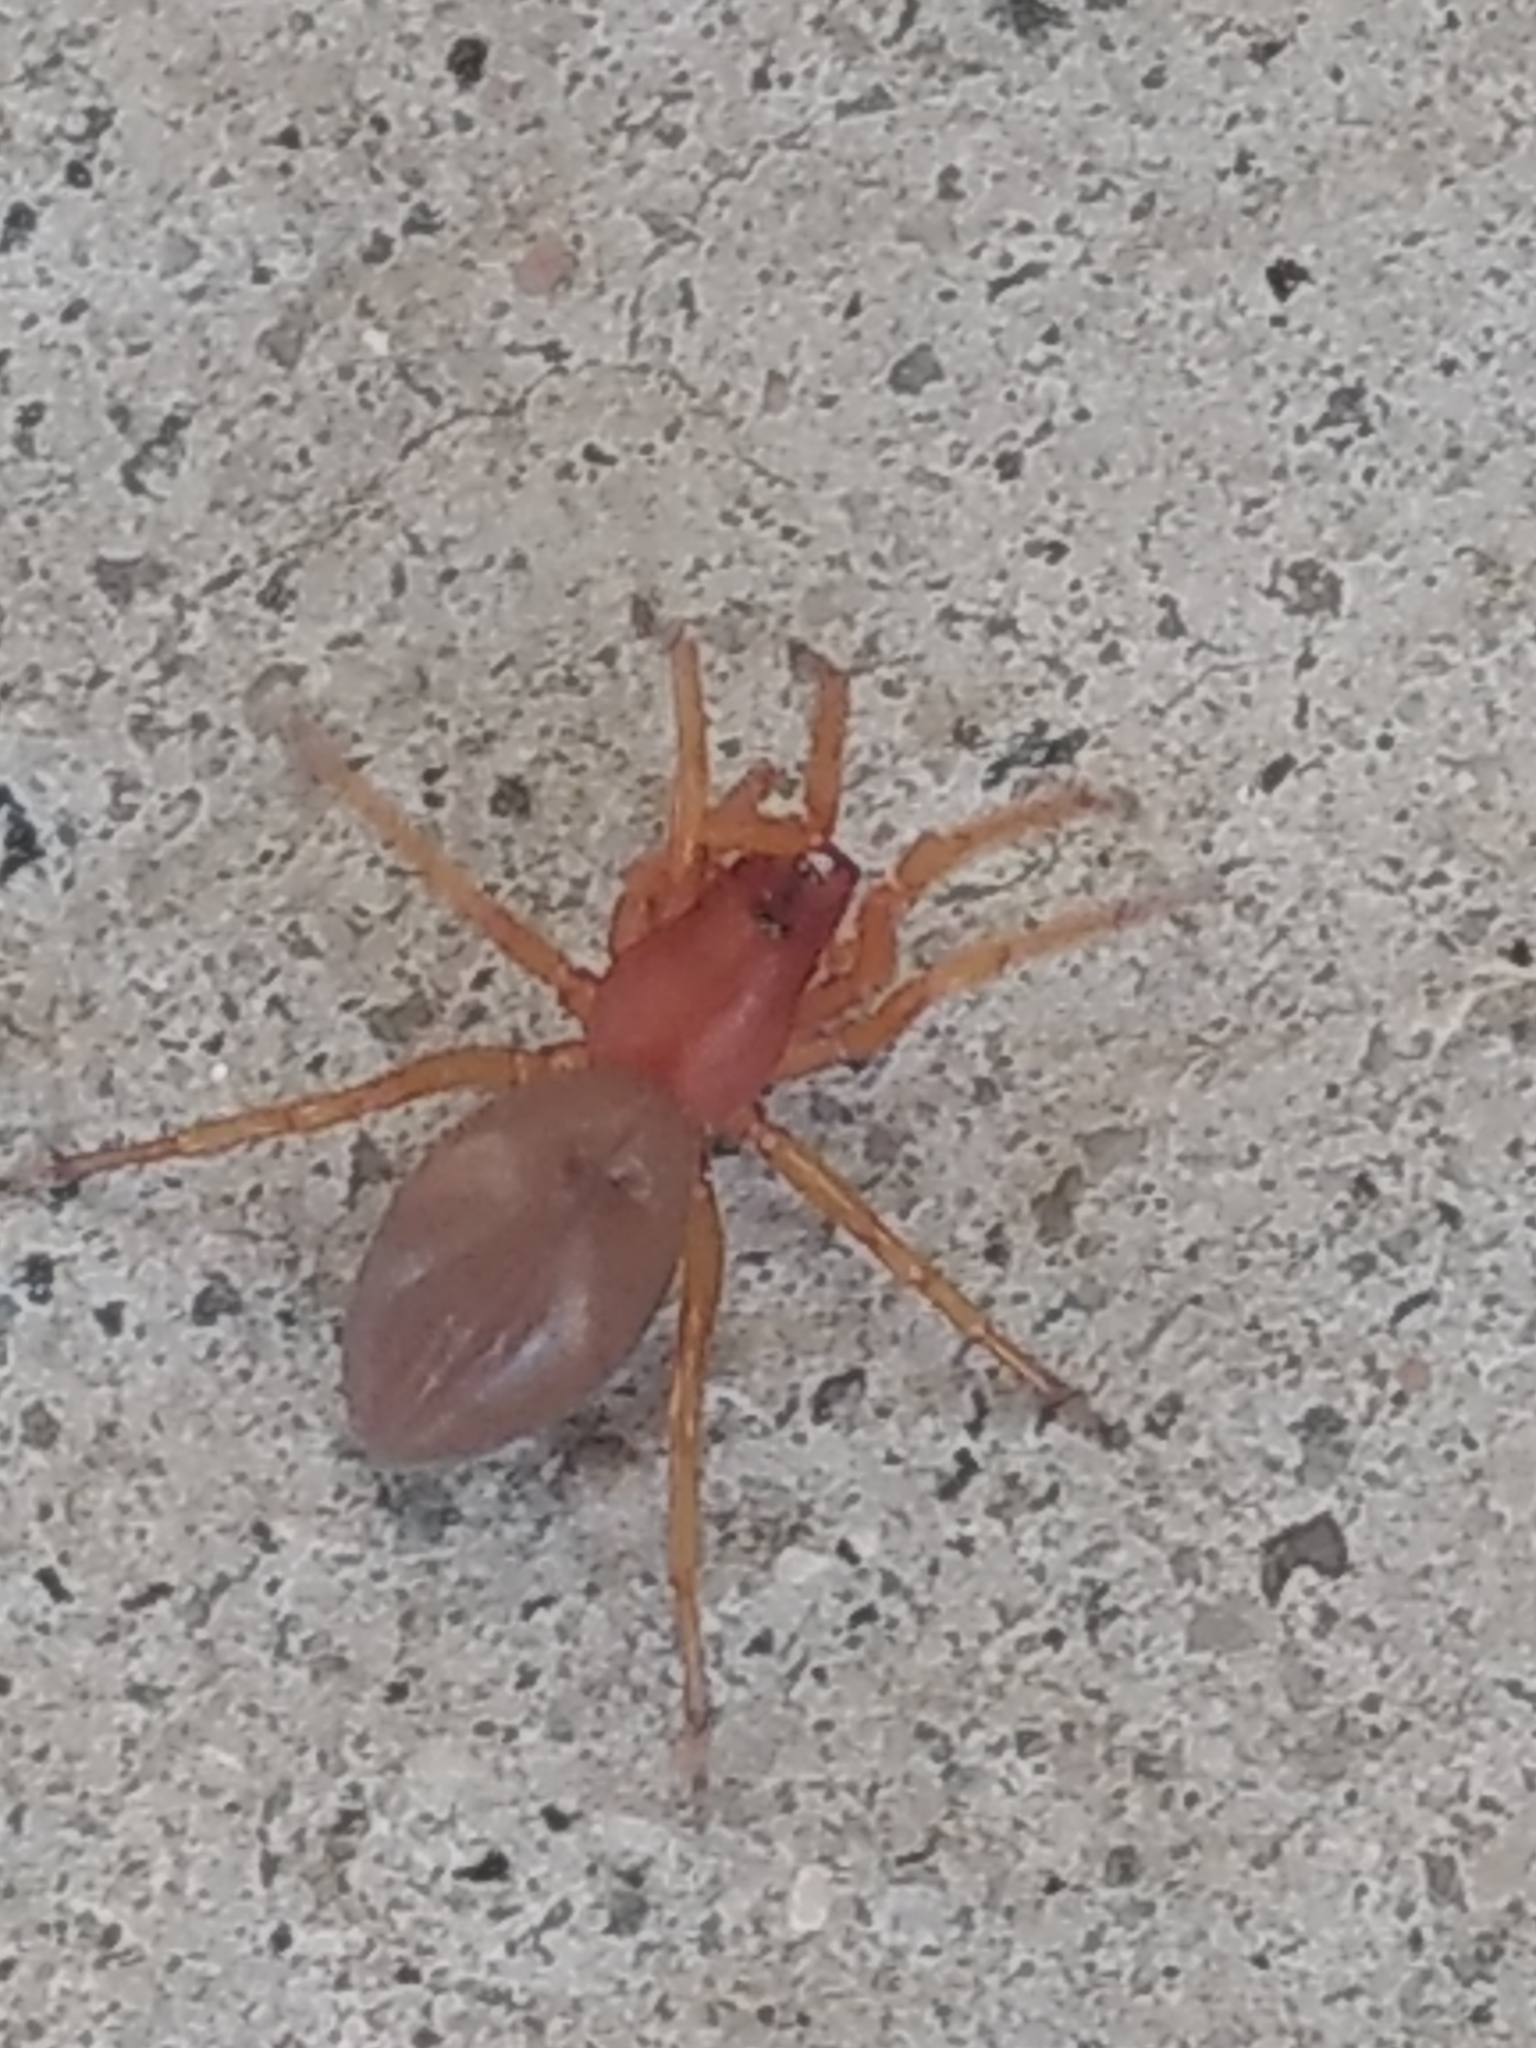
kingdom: Animalia
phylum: Arthropoda
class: Arachnida
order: Araneae
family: Dysderidae
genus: Dysdera
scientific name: Dysdera crocata
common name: Woodlouse spider
